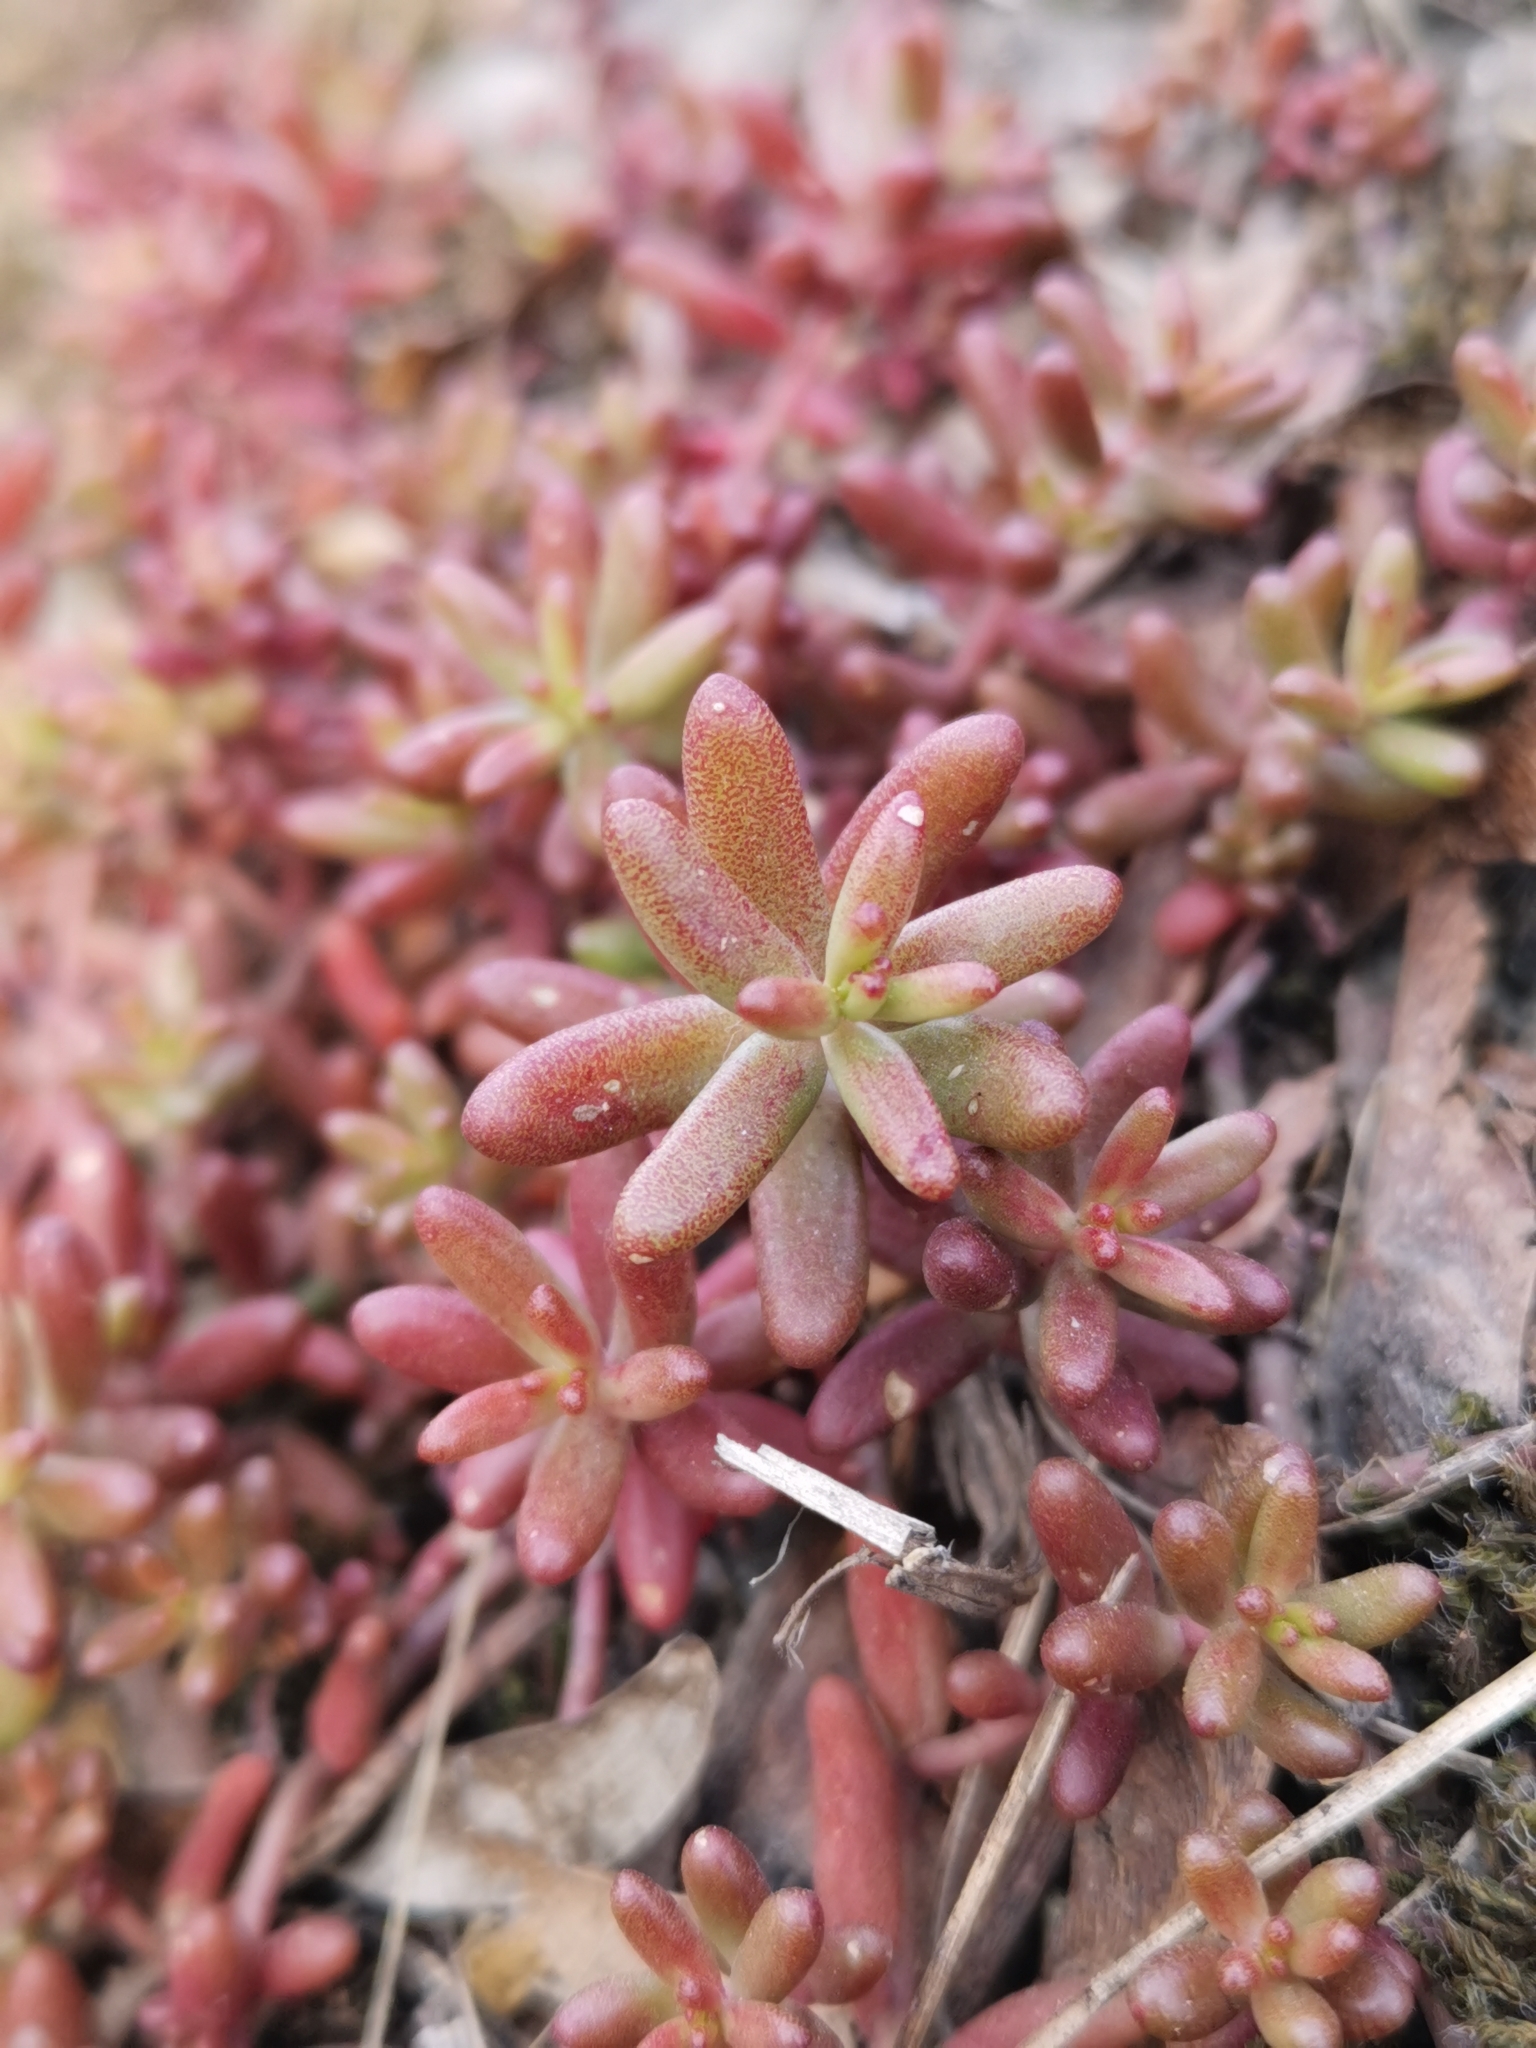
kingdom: Plantae
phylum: Tracheophyta
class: Magnoliopsida
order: Saxifragales
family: Crassulaceae
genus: Sedum
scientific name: Sedum album
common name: White stonecrop
